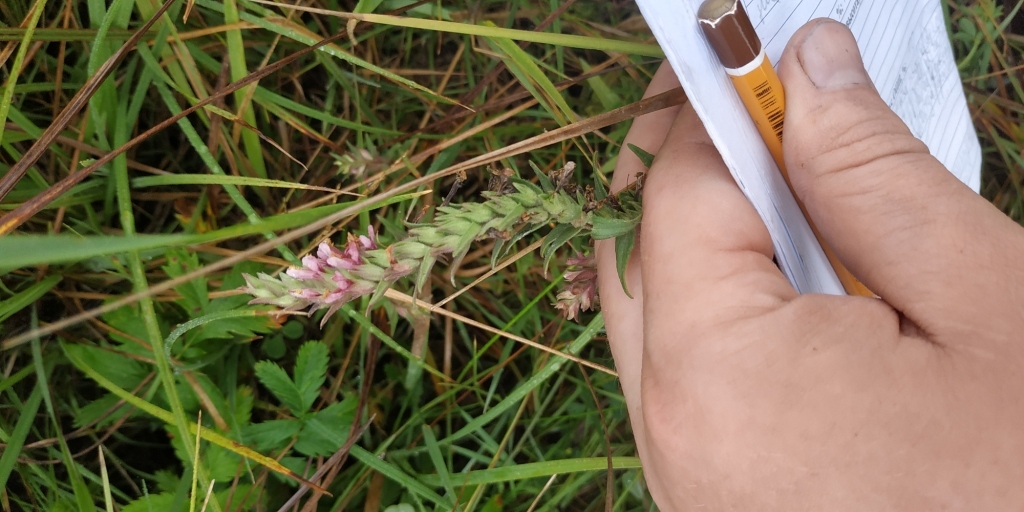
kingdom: Plantae
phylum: Tracheophyta
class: Magnoliopsida
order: Lamiales
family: Orobanchaceae
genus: Odontites
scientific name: Odontites vulgaris
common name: Broomrape
